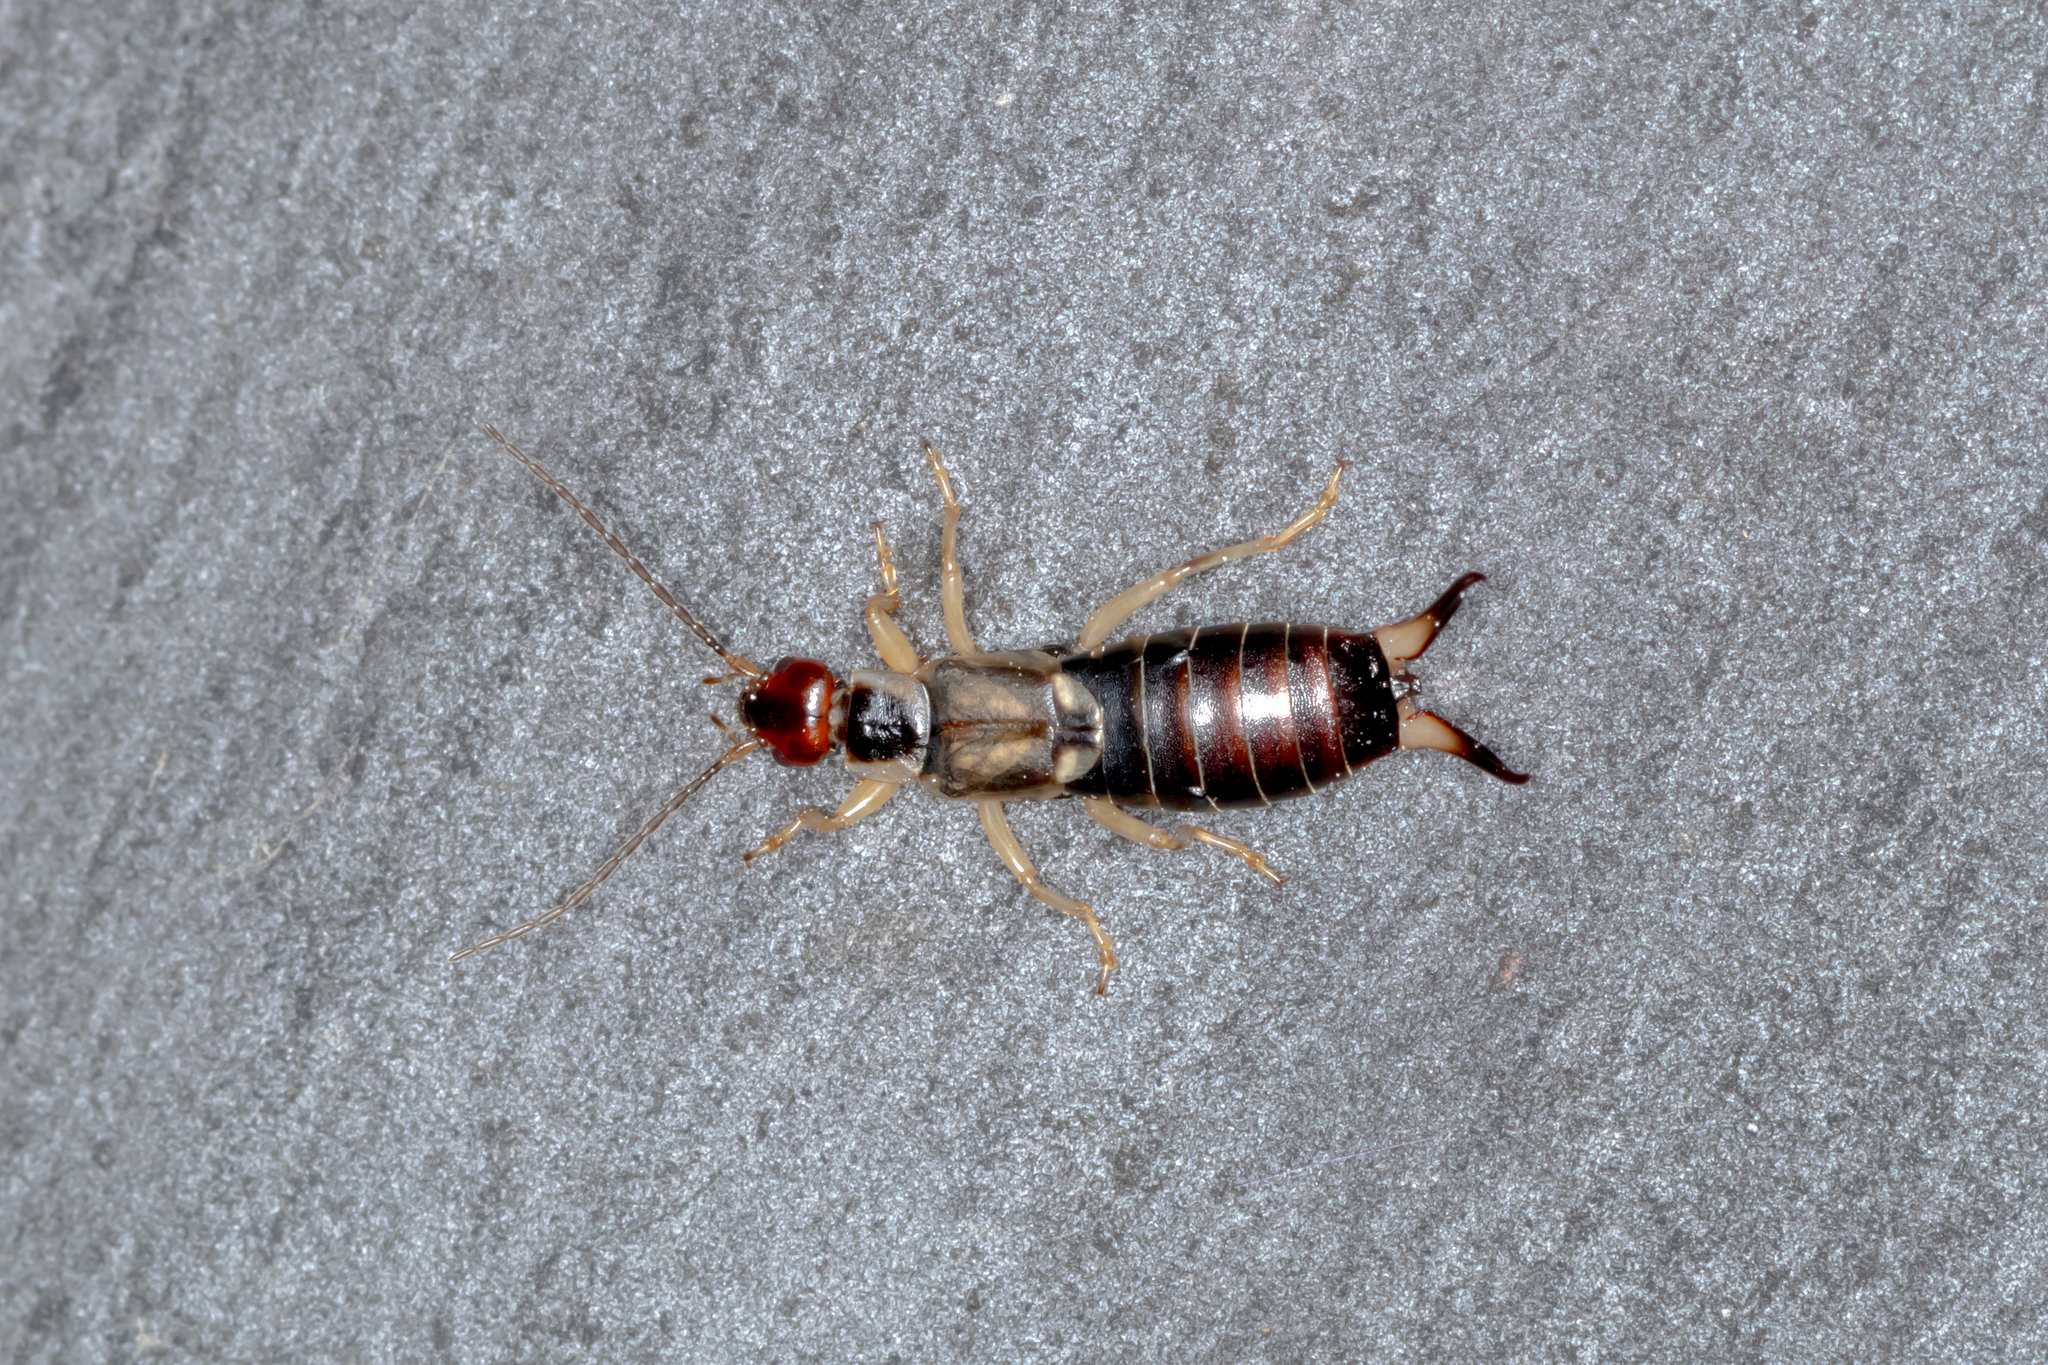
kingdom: Animalia
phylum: Arthropoda
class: Insecta
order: Dermaptera
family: Forficulidae
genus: Forficula
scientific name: Forficula dentata
